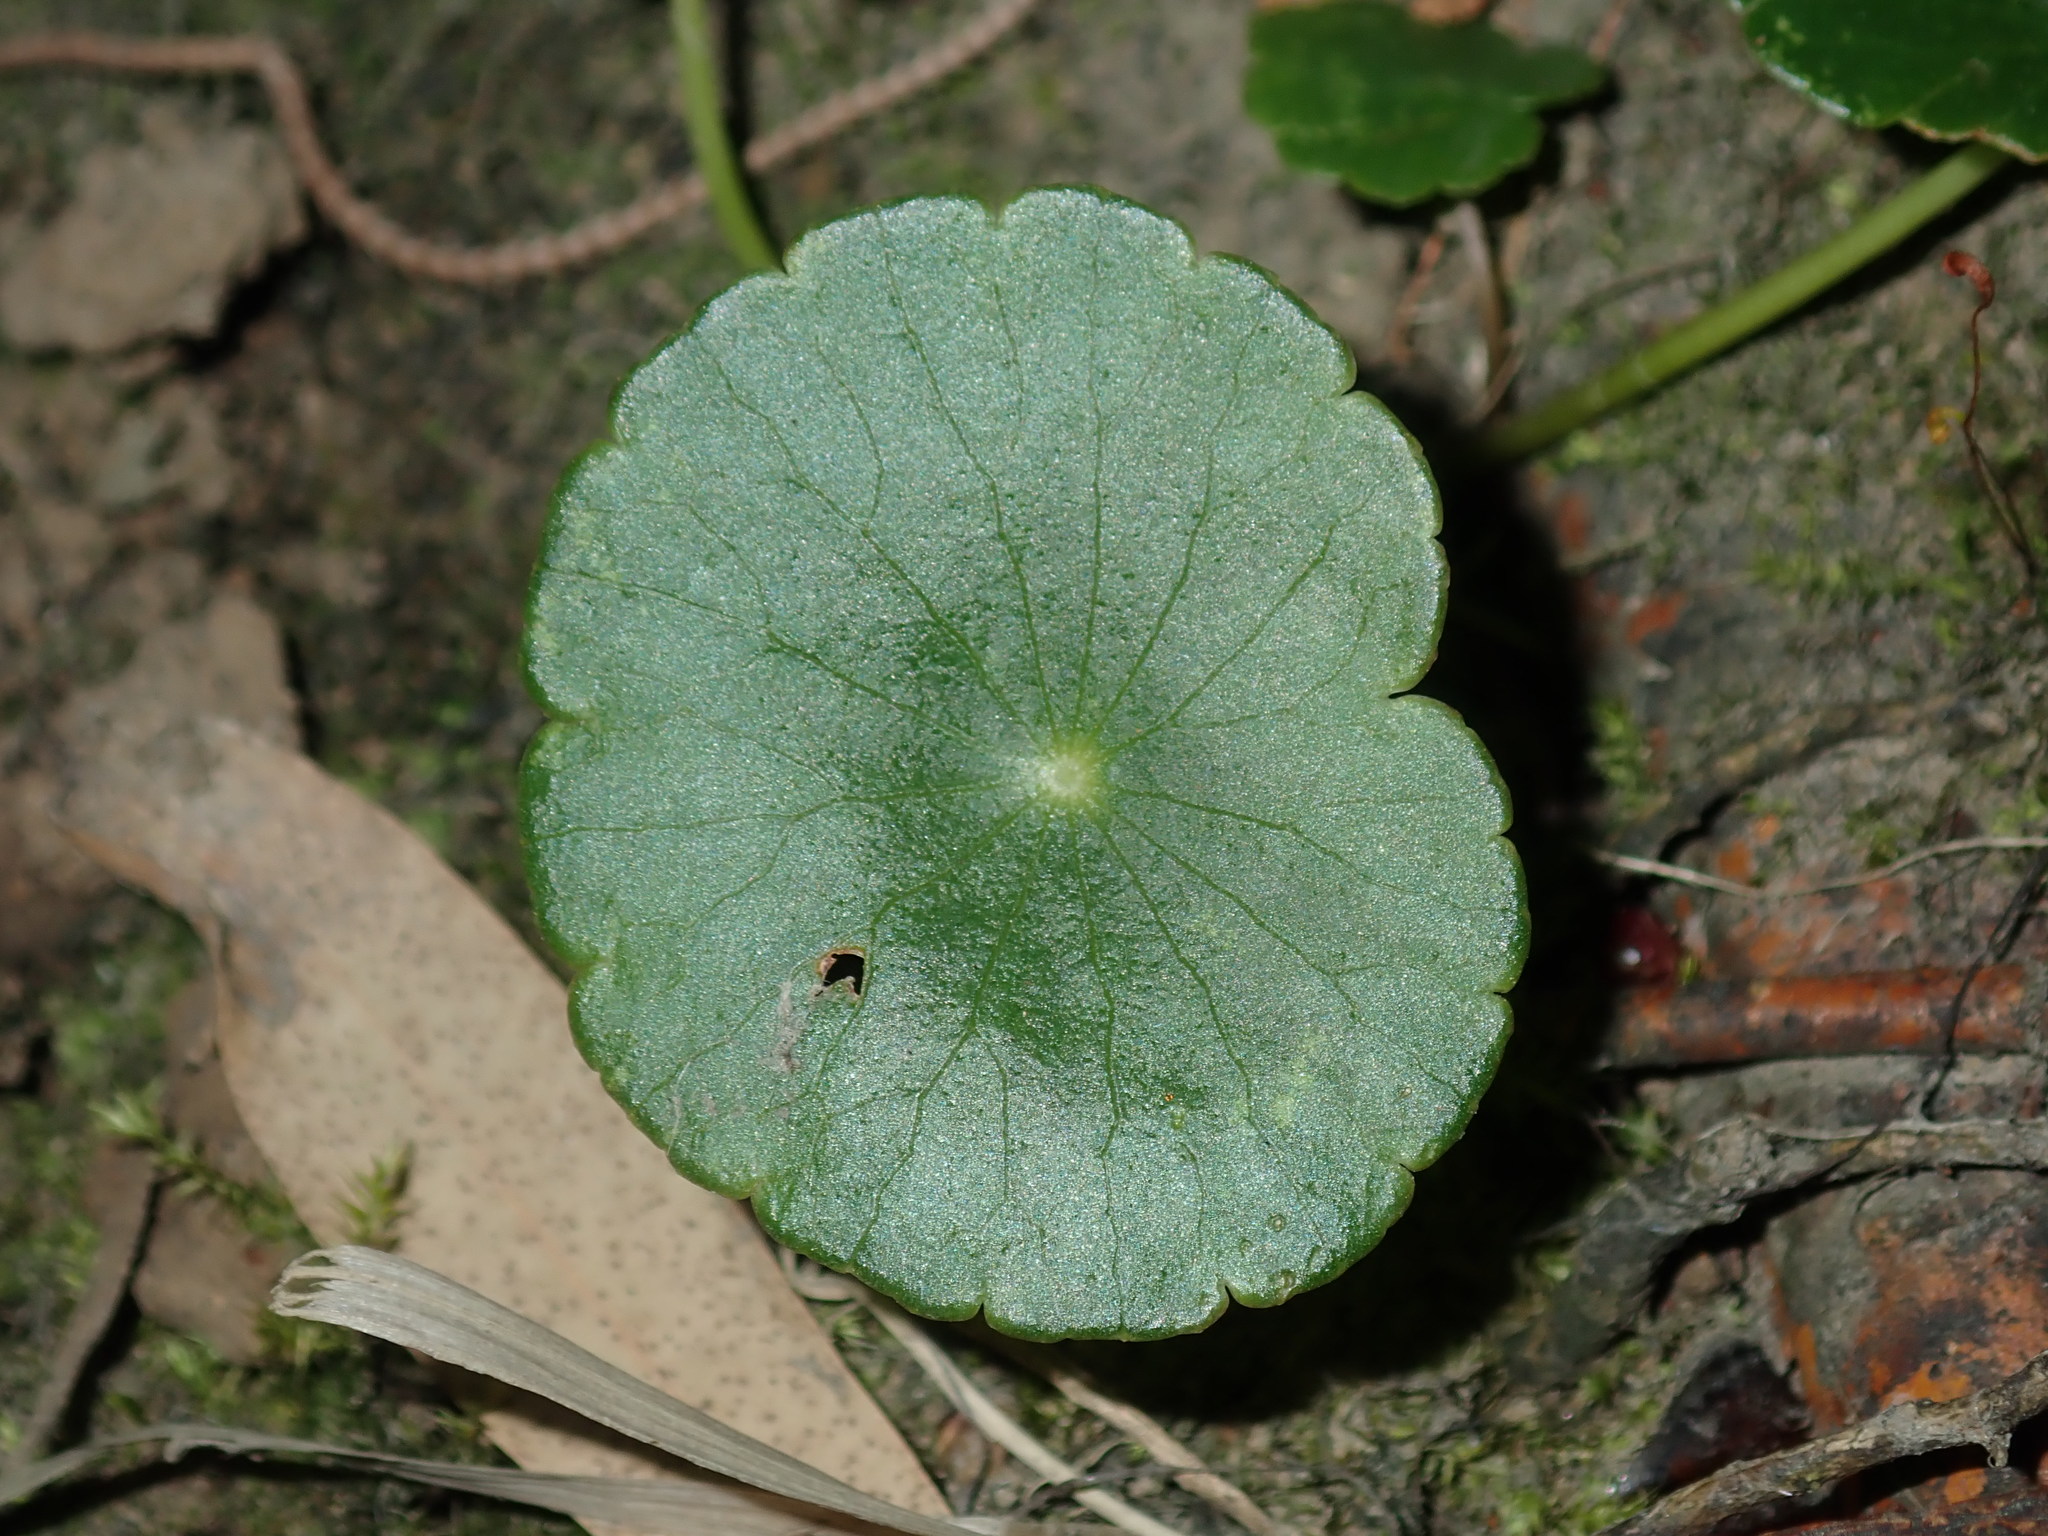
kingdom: Plantae
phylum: Tracheophyta
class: Magnoliopsida
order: Apiales
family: Araliaceae
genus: Hydrocotyle
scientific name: Hydrocotyle bonariensis
